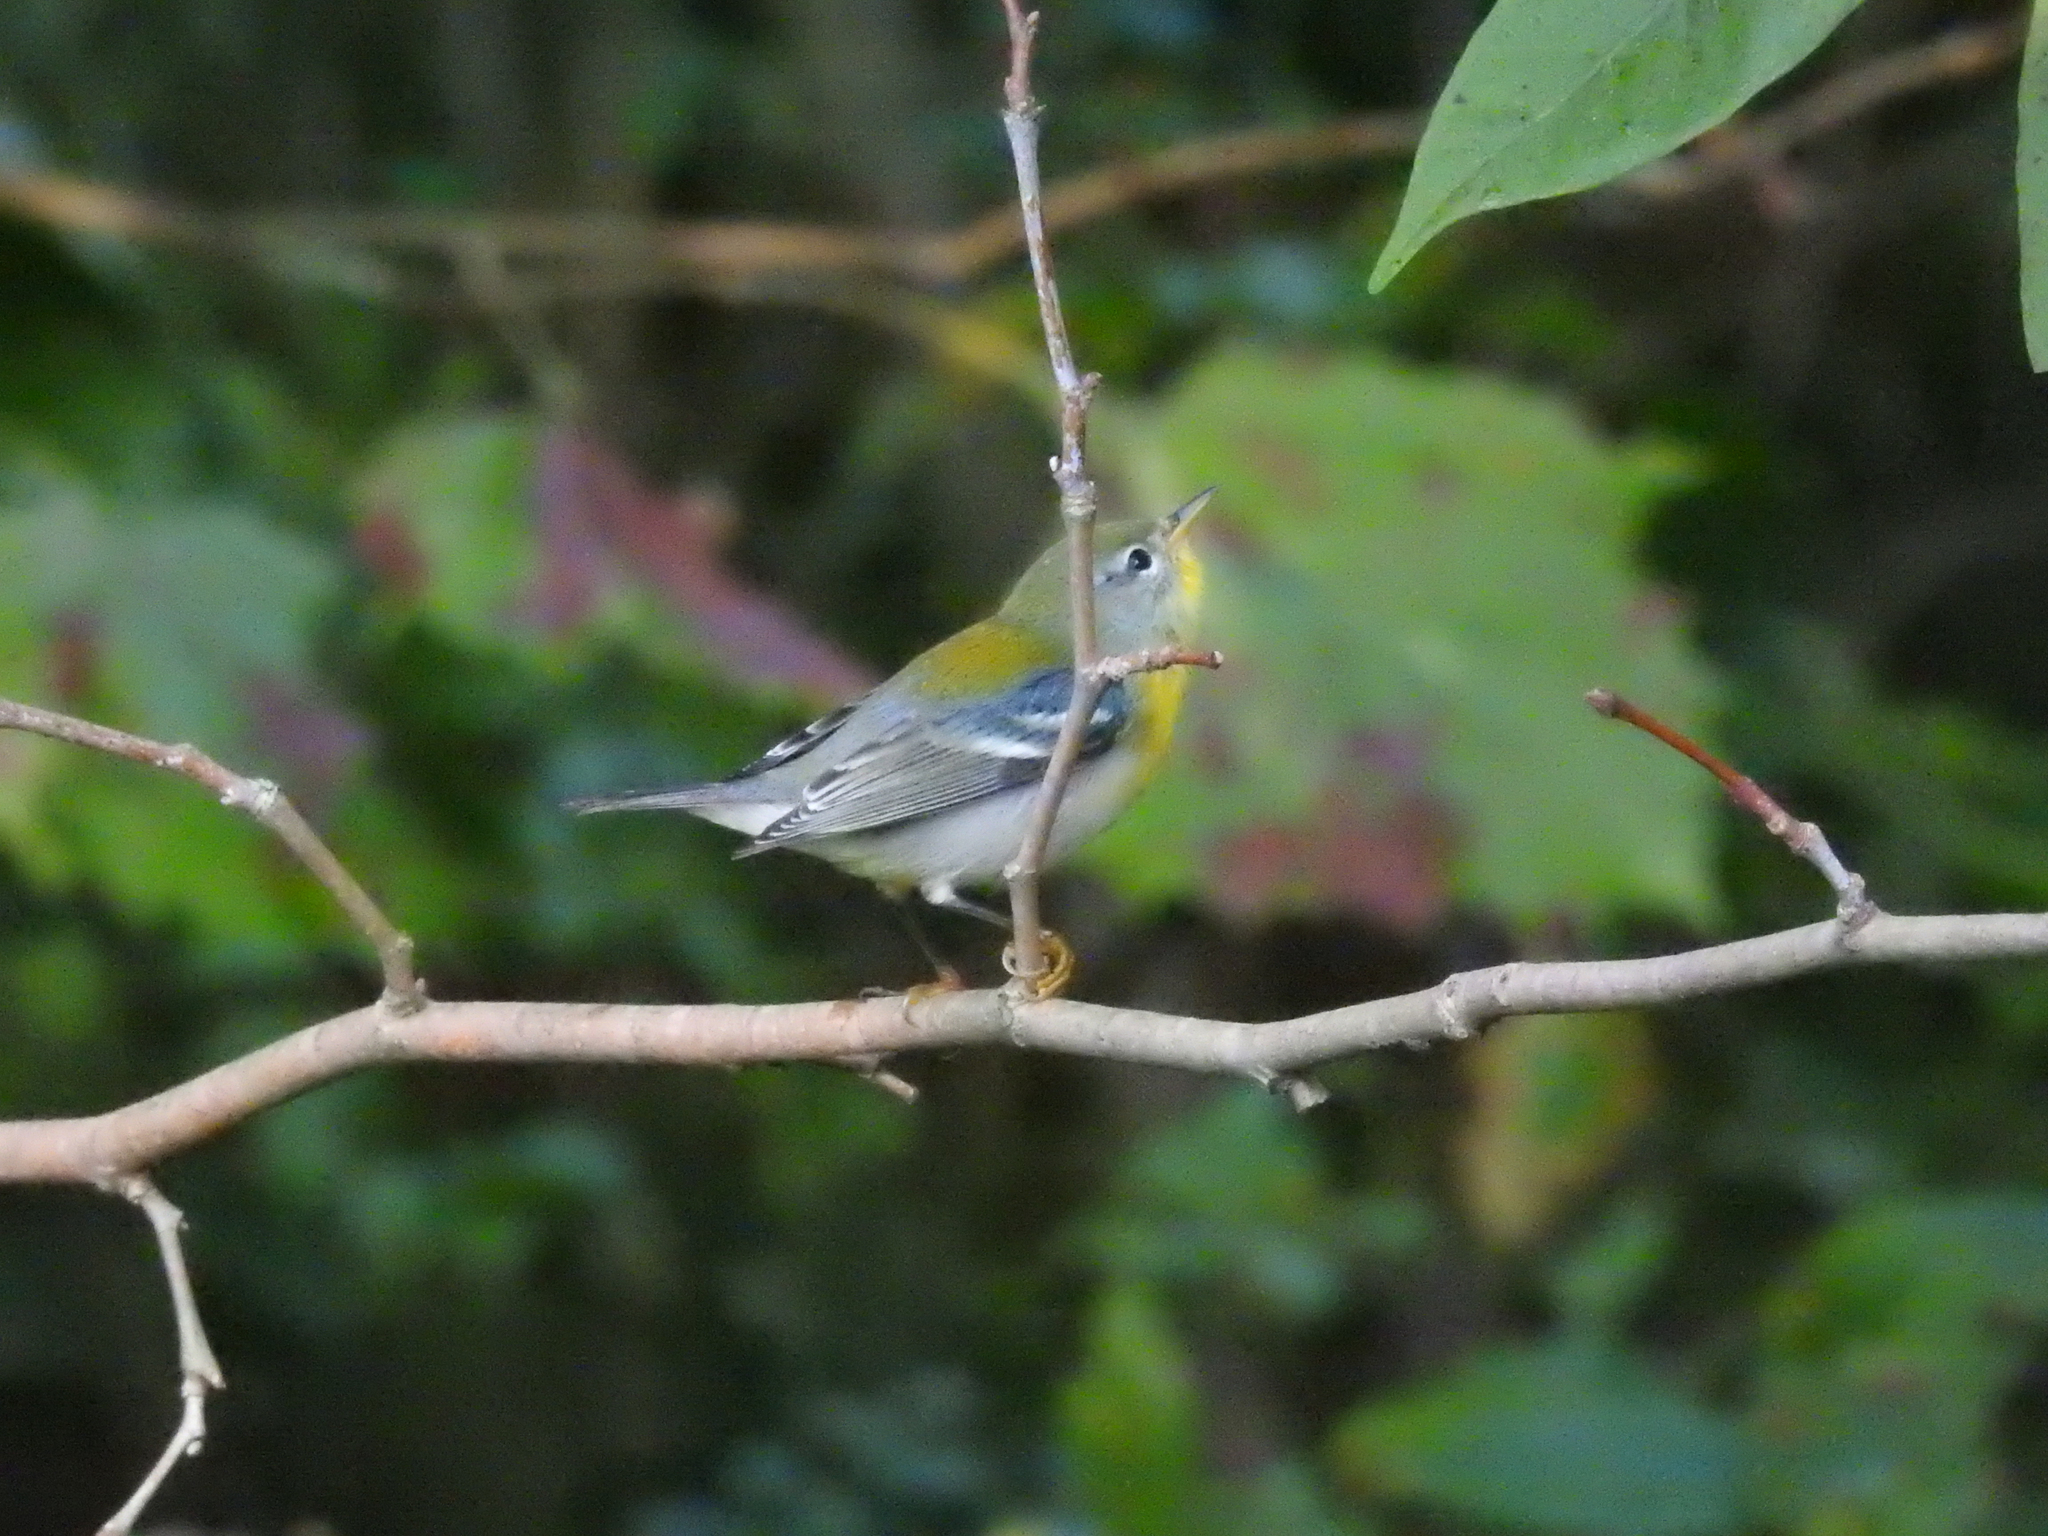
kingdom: Animalia
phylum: Chordata
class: Aves
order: Passeriformes
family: Parulidae
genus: Setophaga
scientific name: Setophaga americana
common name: Northern parula
